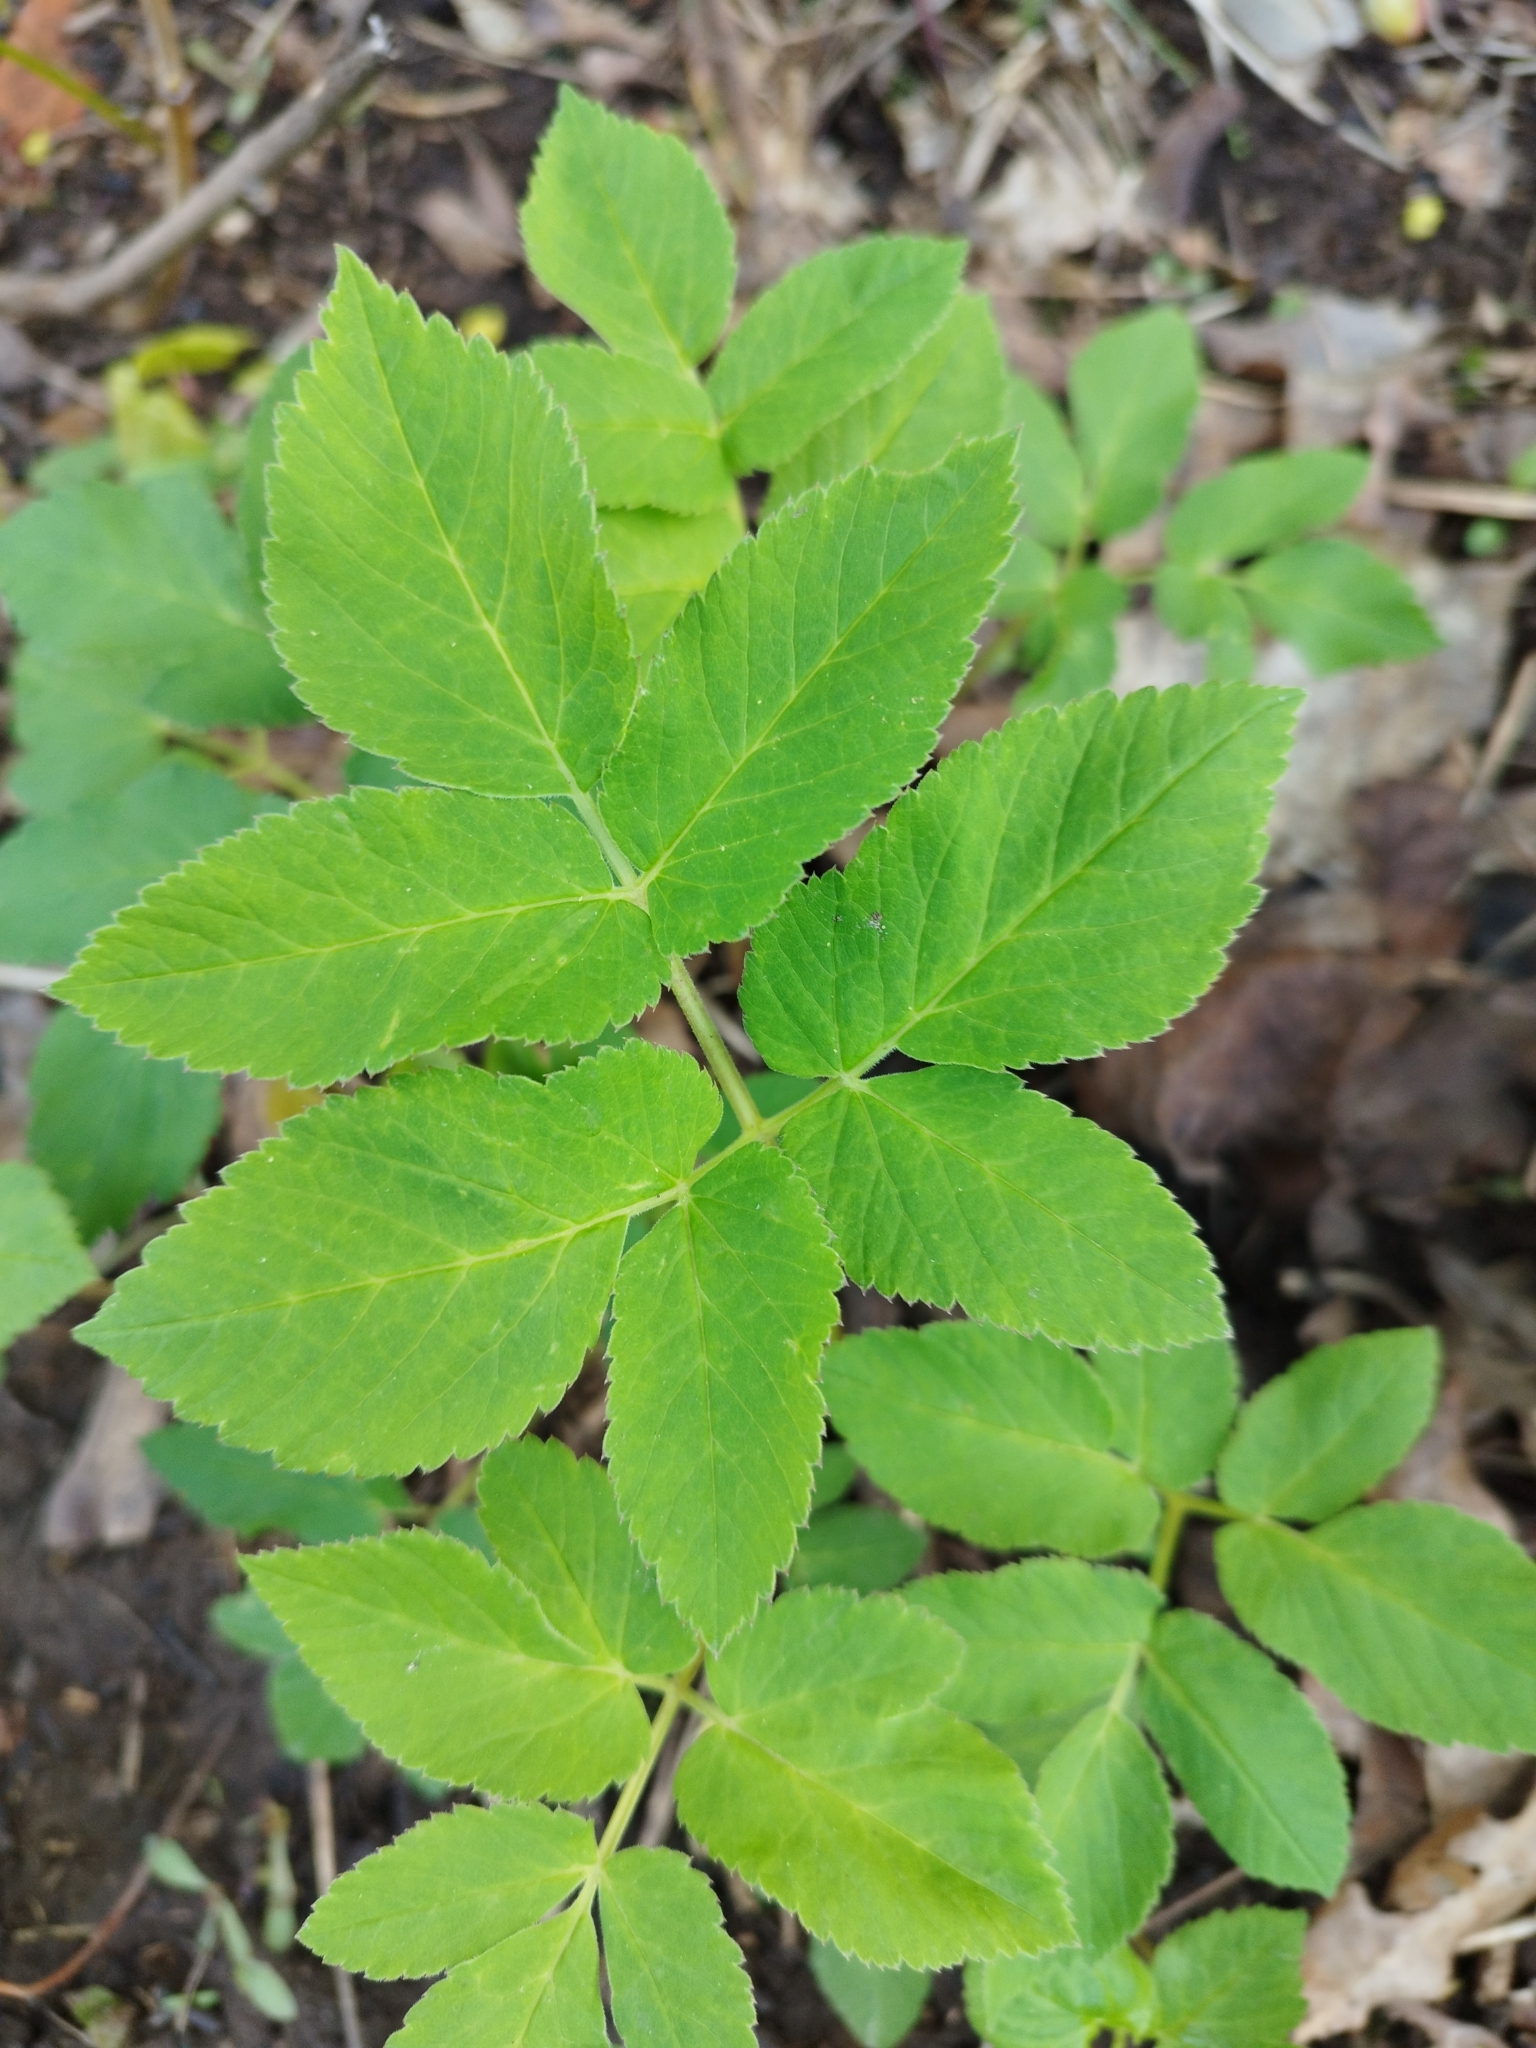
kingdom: Plantae
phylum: Tracheophyta
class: Magnoliopsida
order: Apiales
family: Apiaceae
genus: Aegopodium
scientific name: Aegopodium podagraria
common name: Ground-elder
